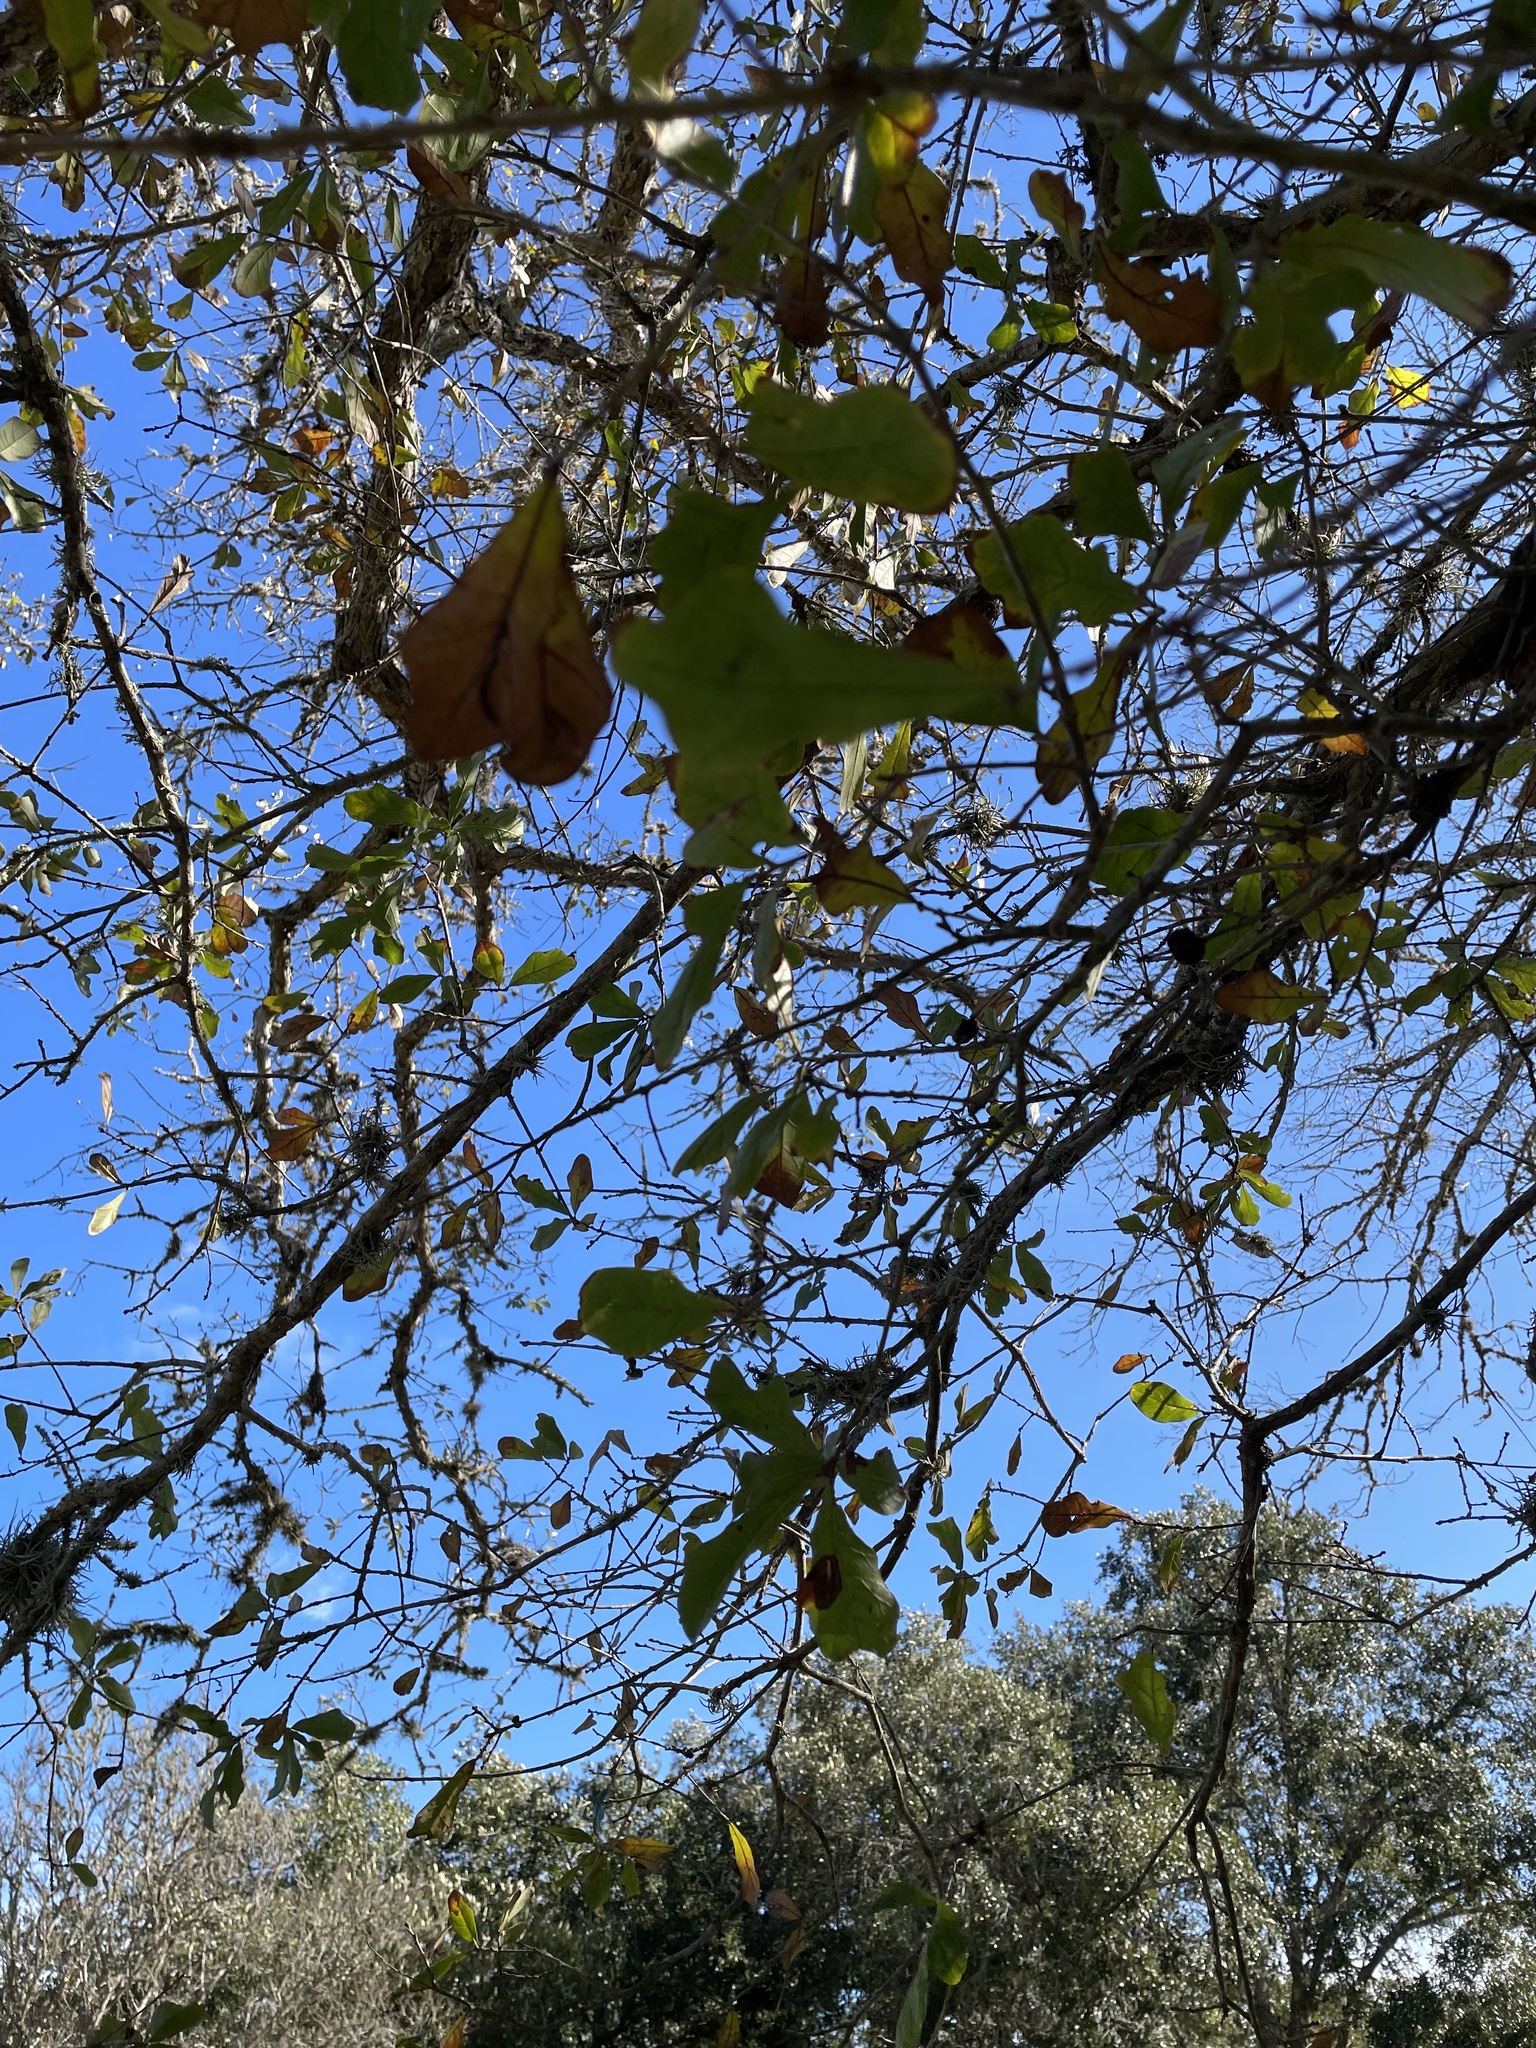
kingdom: Plantae
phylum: Tracheophyta
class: Magnoliopsida
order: Fagales
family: Fagaceae
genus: Quercus
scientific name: Quercus sinuata
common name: Durand oak
